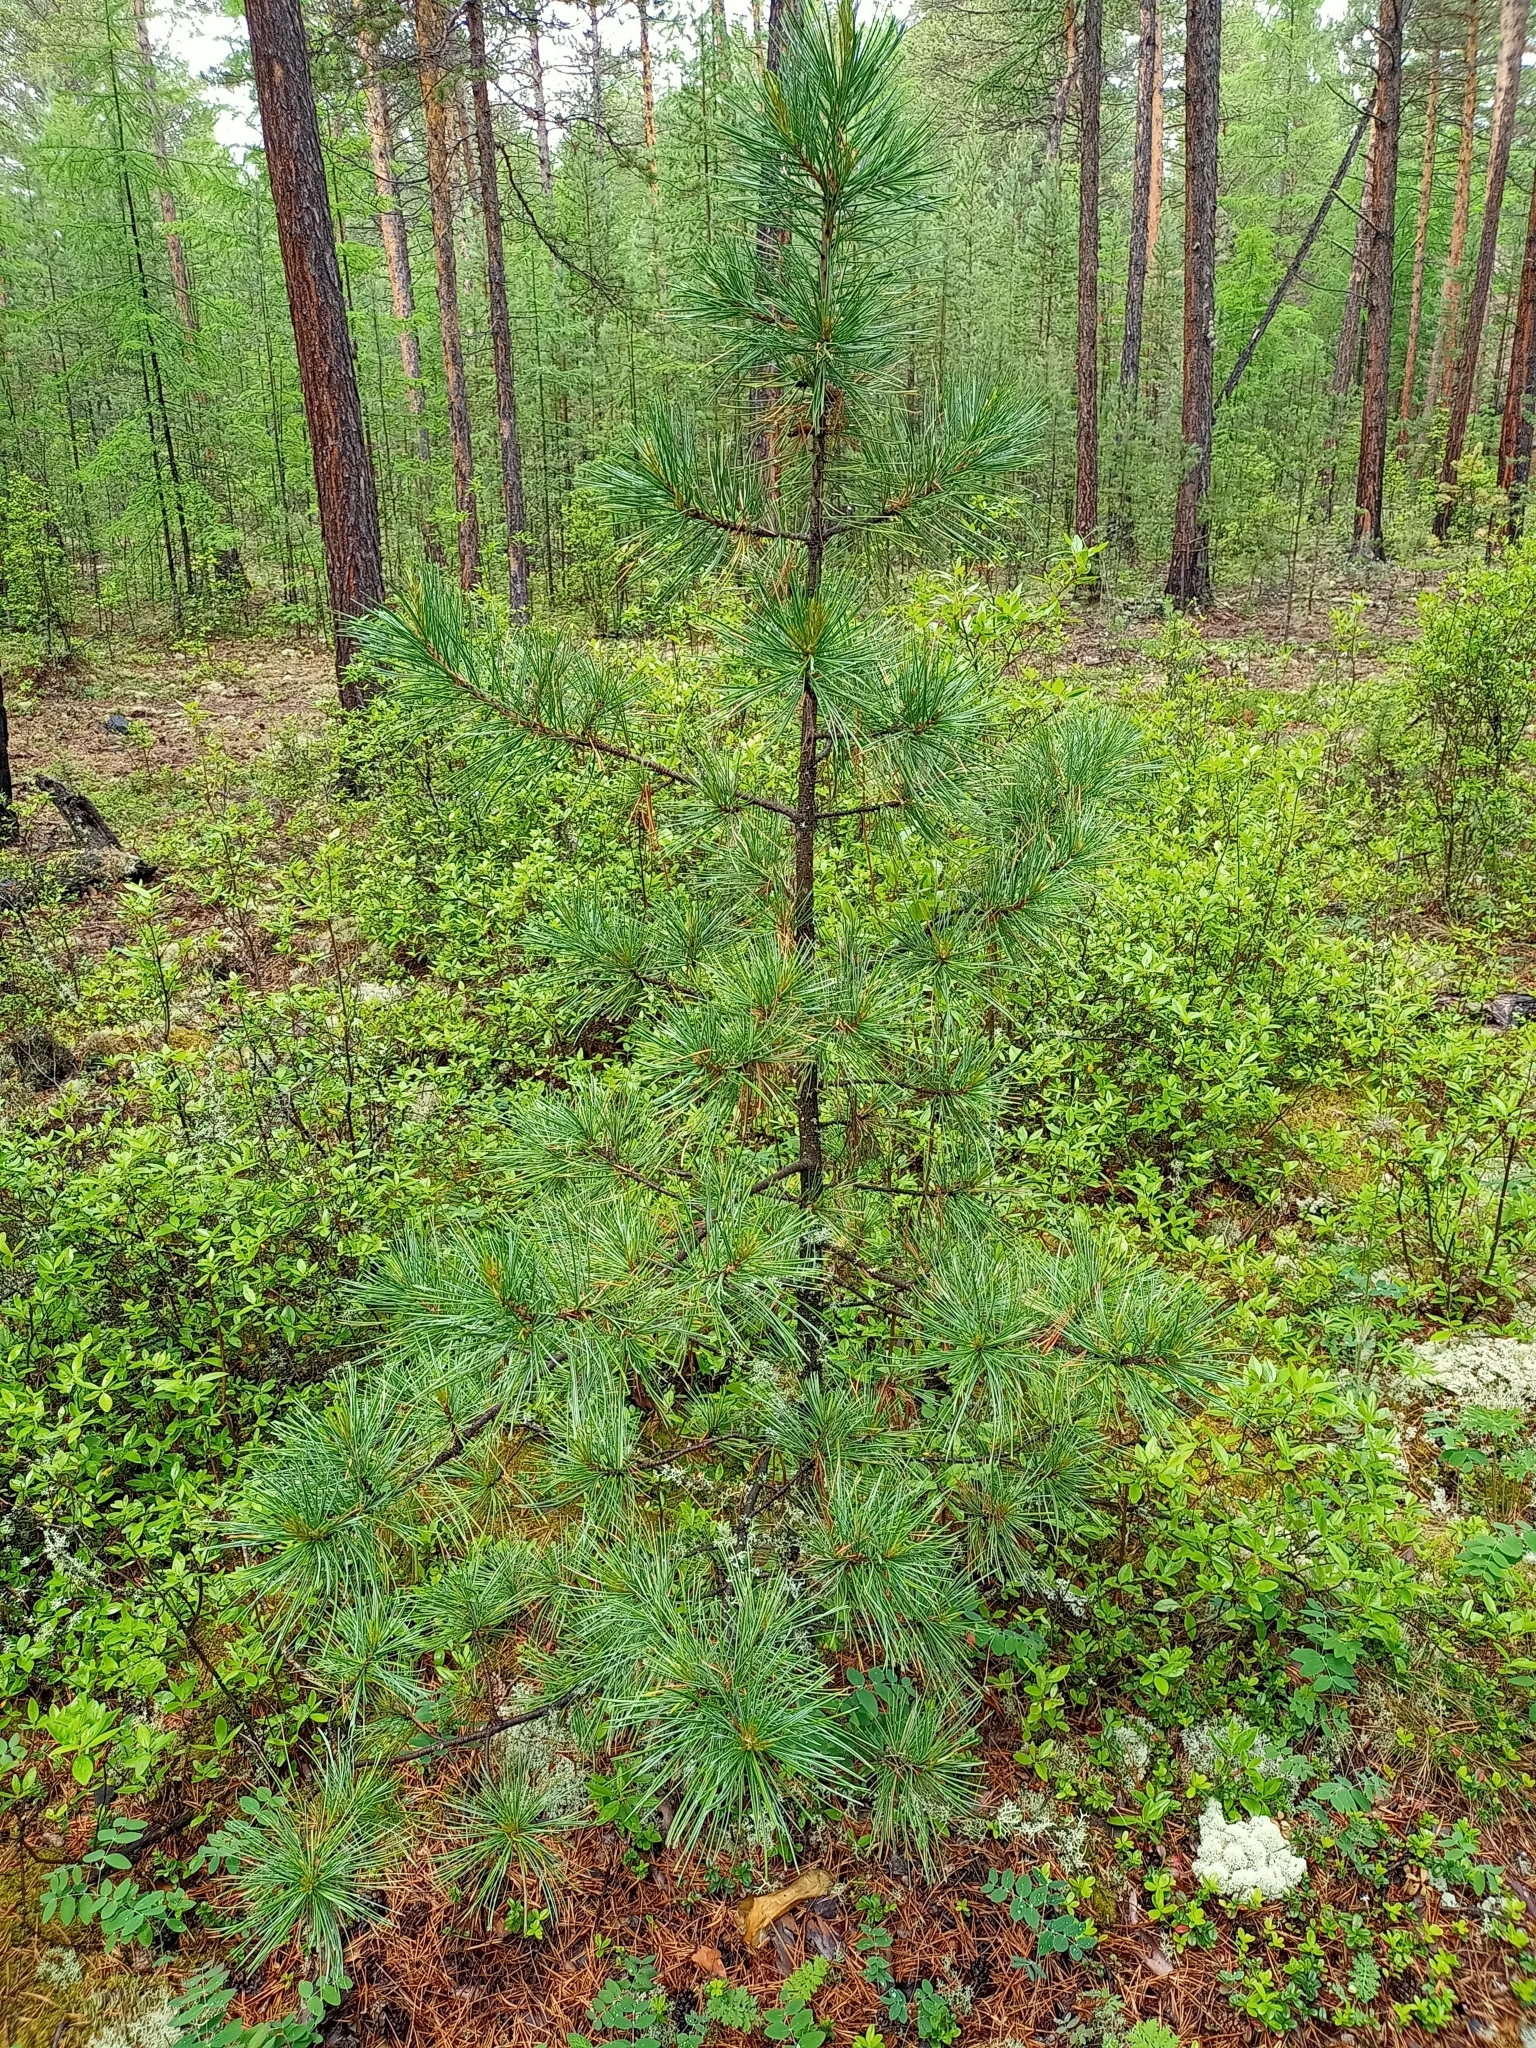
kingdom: Plantae
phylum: Tracheophyta
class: Pinopsida
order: Pinales
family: Pinaceae
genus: Pinus
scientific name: Pinus sibirica
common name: Siberian pine
